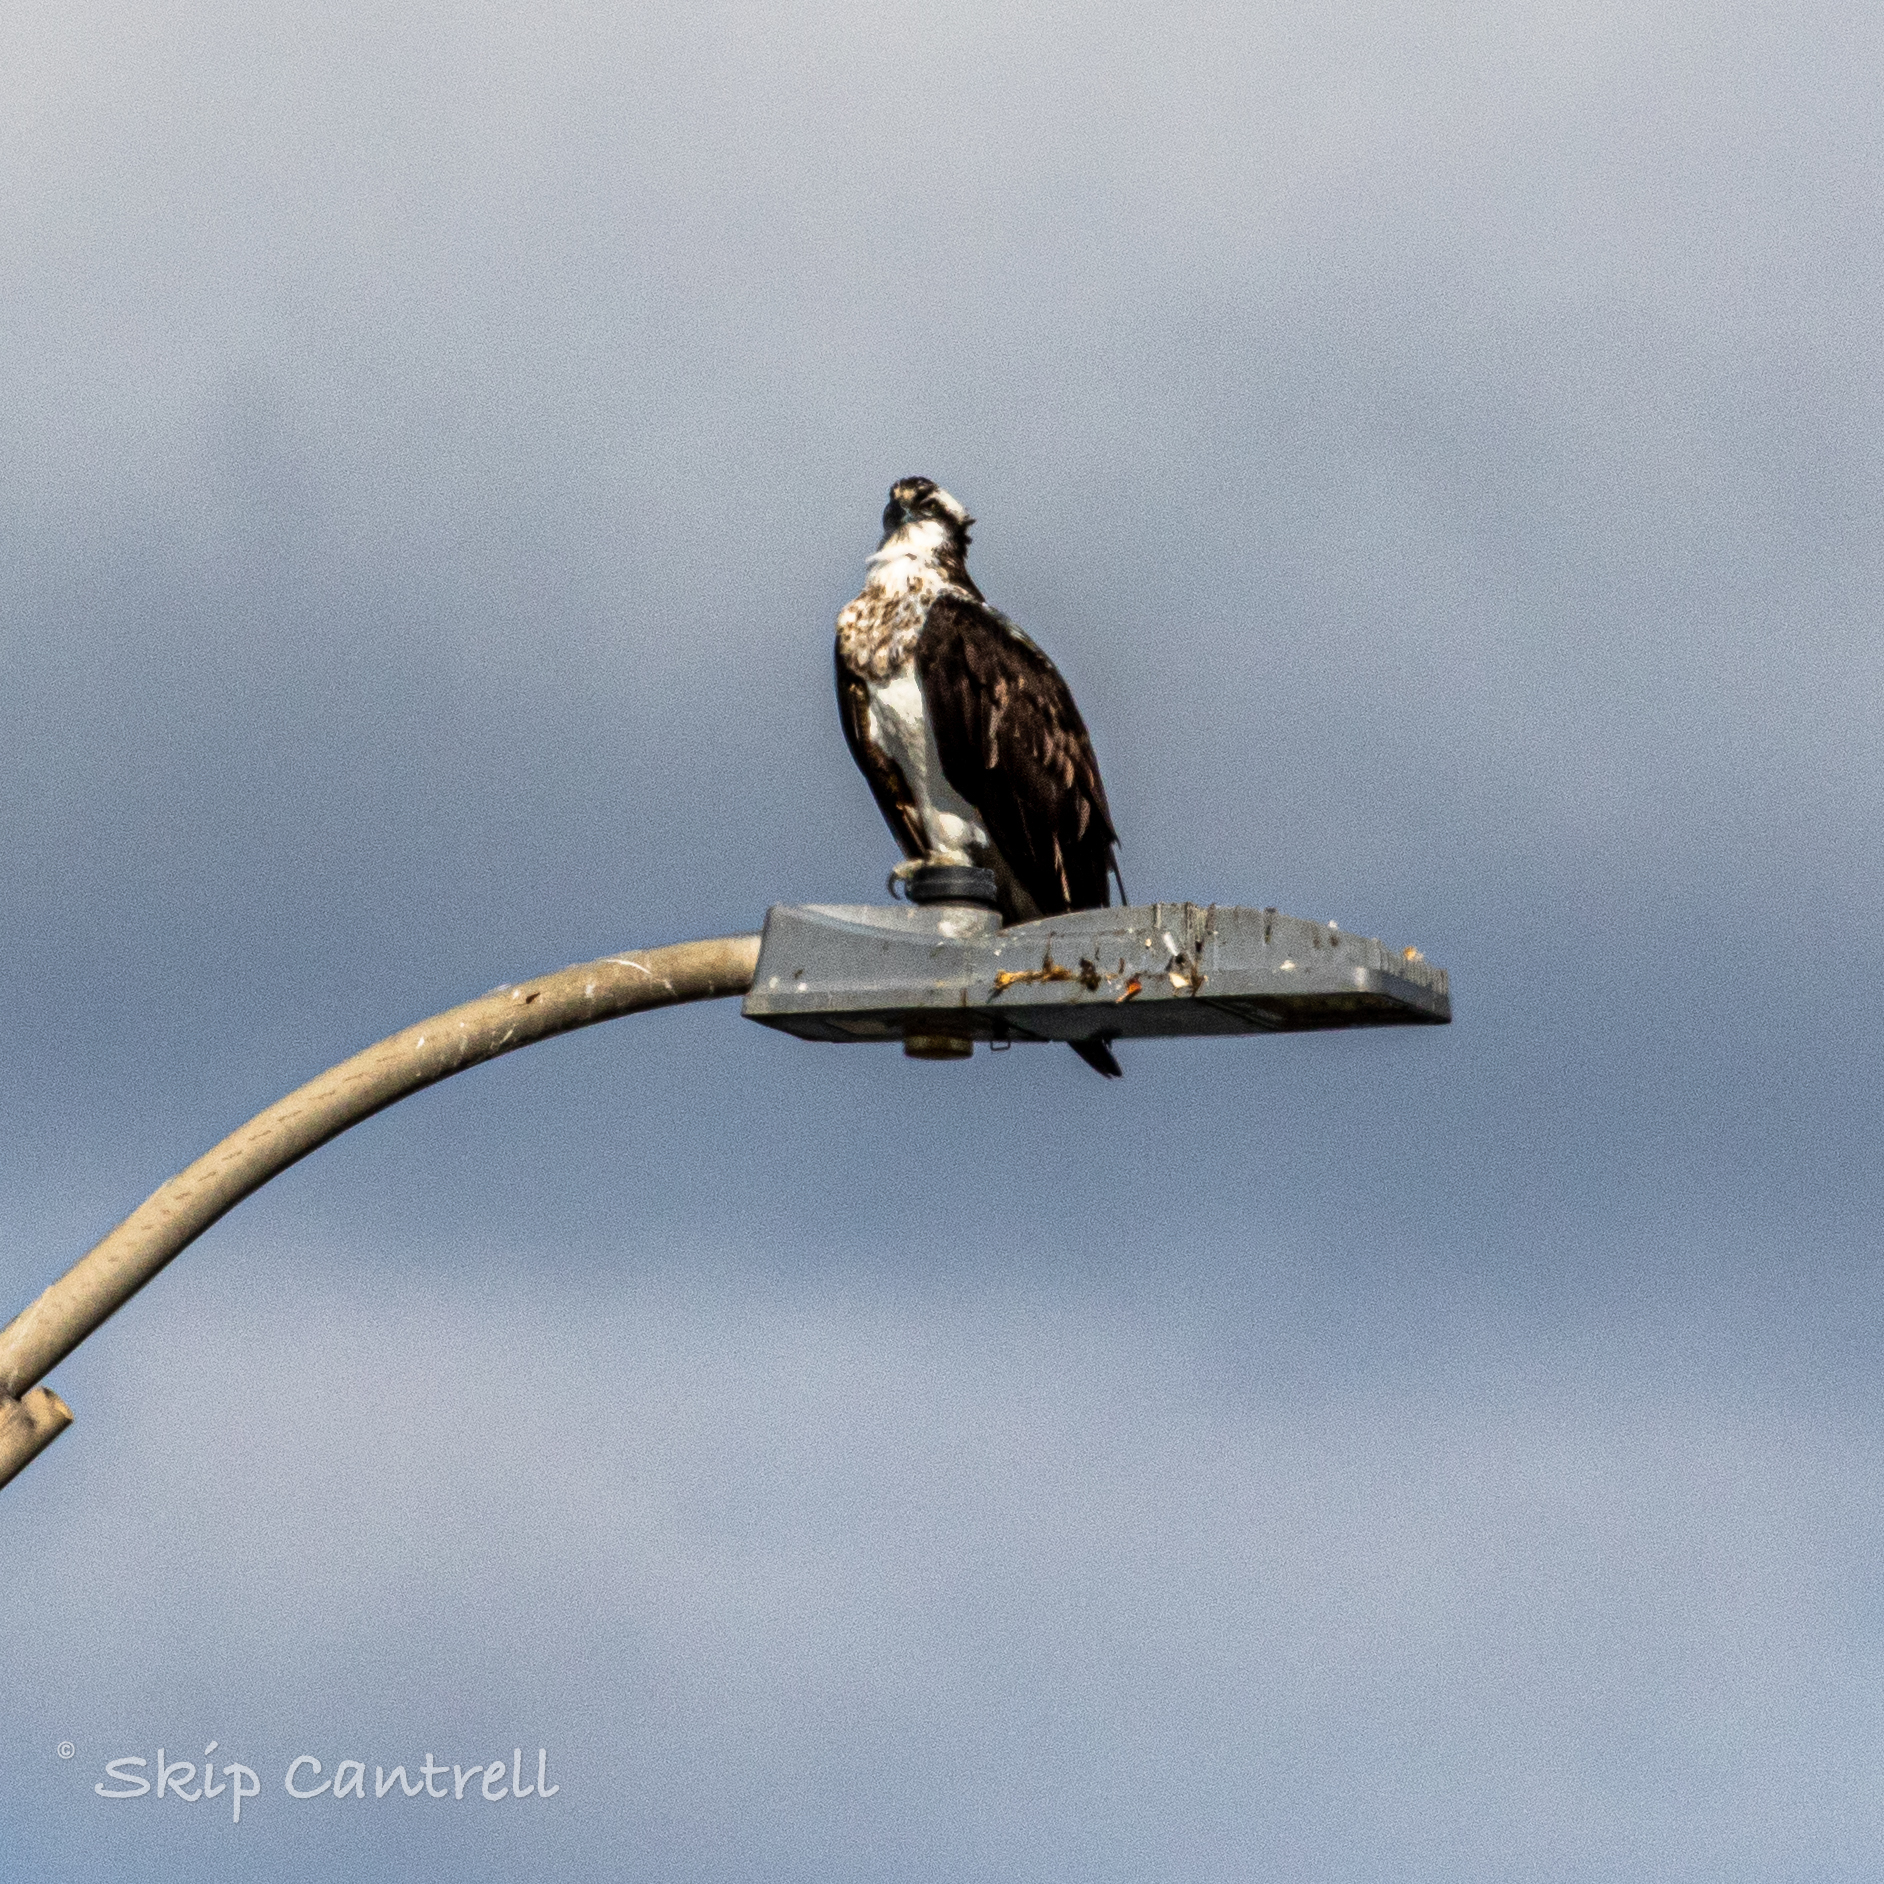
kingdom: Animalia
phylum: Chordata
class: Aves
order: Accipitriformes
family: Pandionidae
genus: Pandion
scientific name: Pandion haliaetus
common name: Osprey
